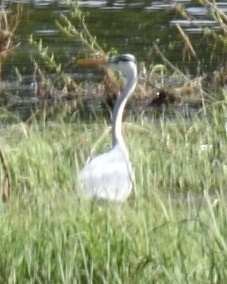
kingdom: Animalia
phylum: Chordata
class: Aves
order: Pelecaniformes
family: Ardeidae
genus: Ardea
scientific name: Ardea cinerea
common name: Grey heron
